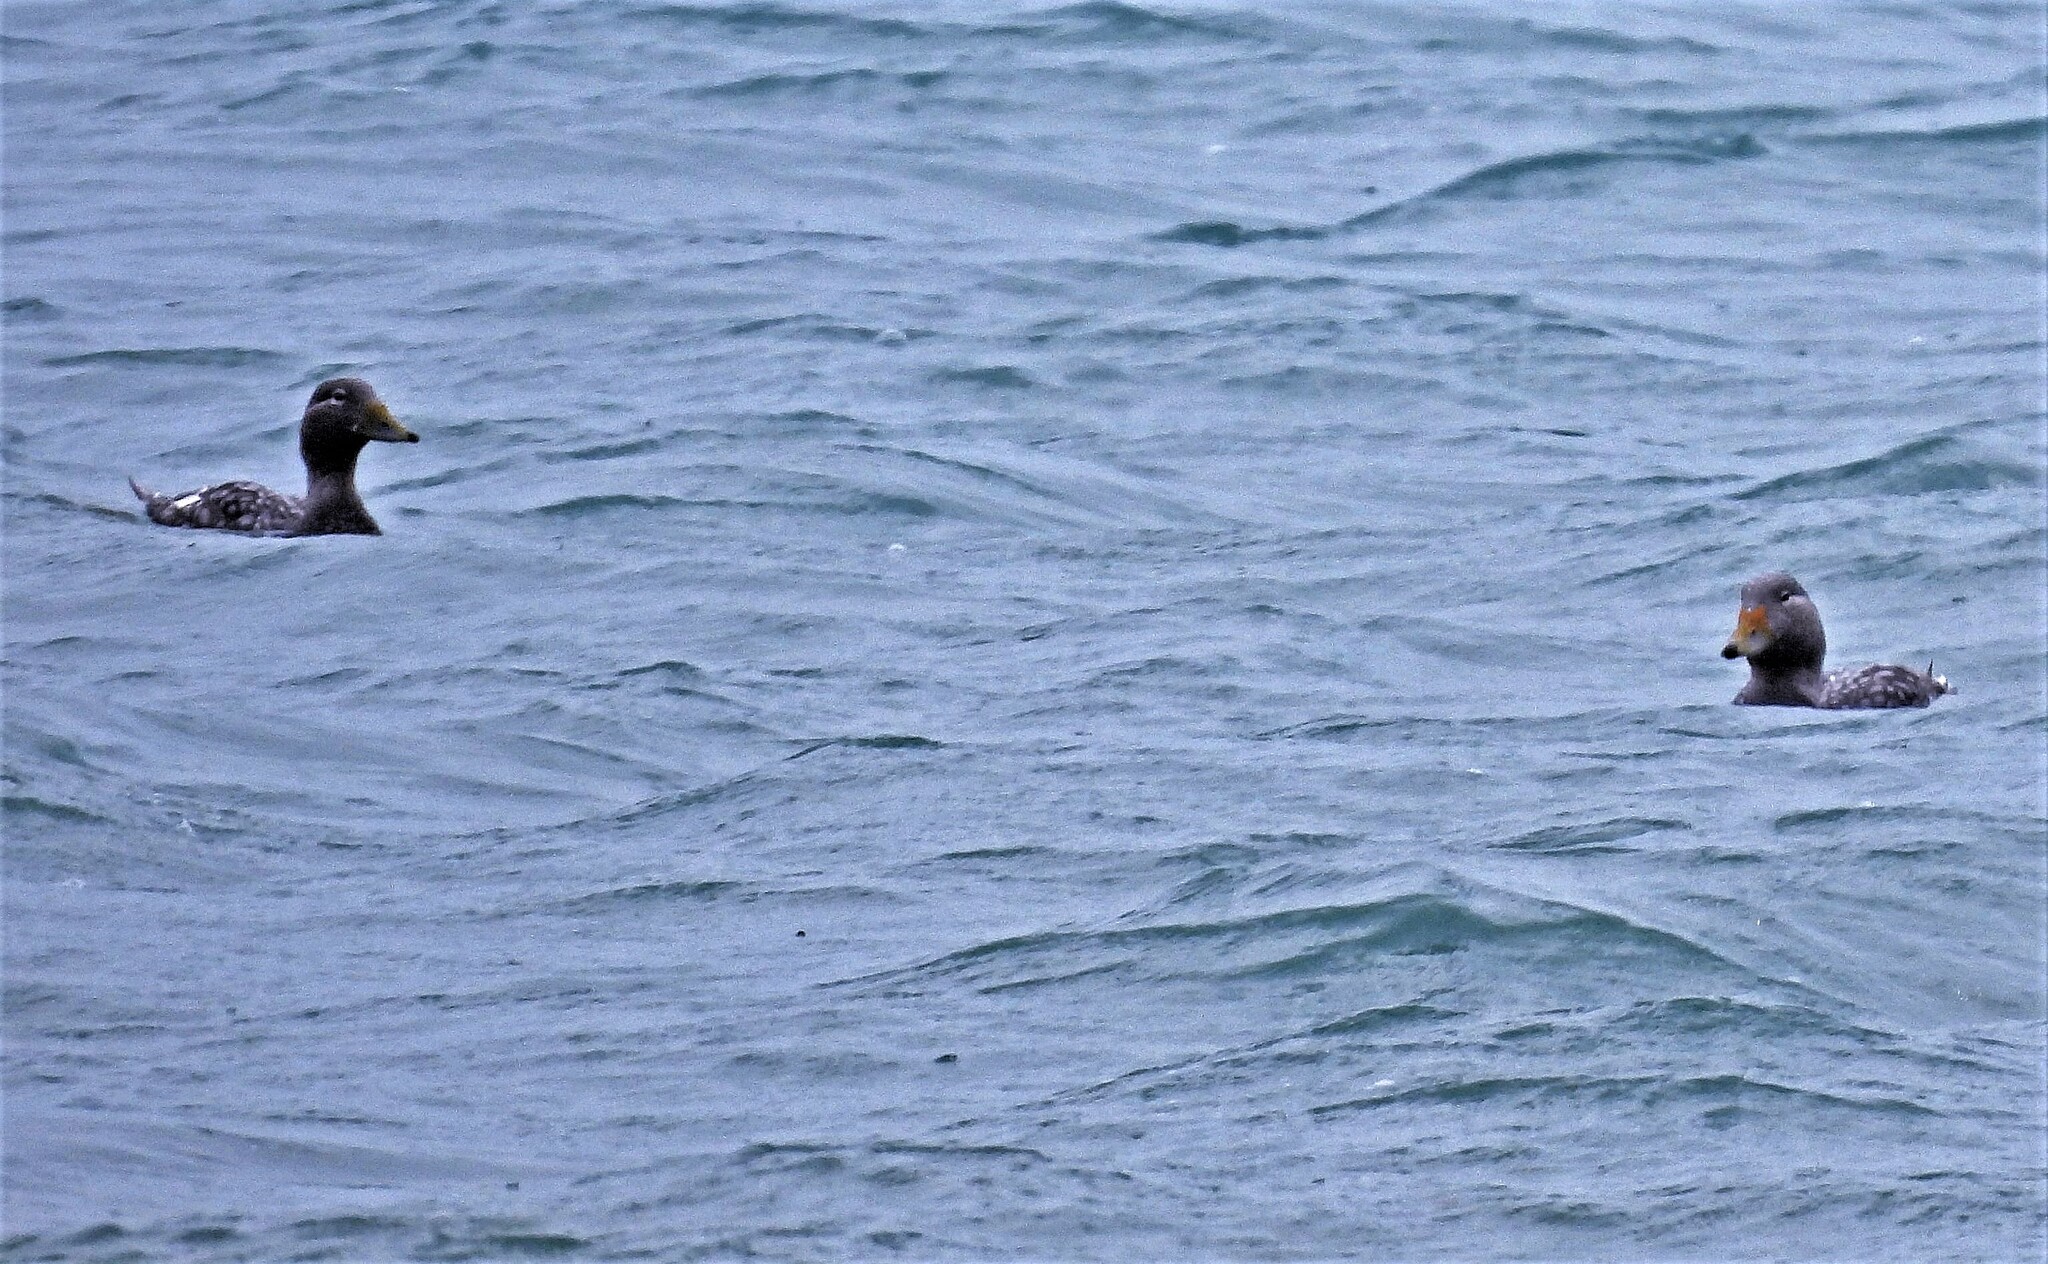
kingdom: Animalia
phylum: Chordata
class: Aves
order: Anseriformes
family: Anatidae
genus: Tachyeres
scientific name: Tachyeres patachonicus
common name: Flying steamer duck
